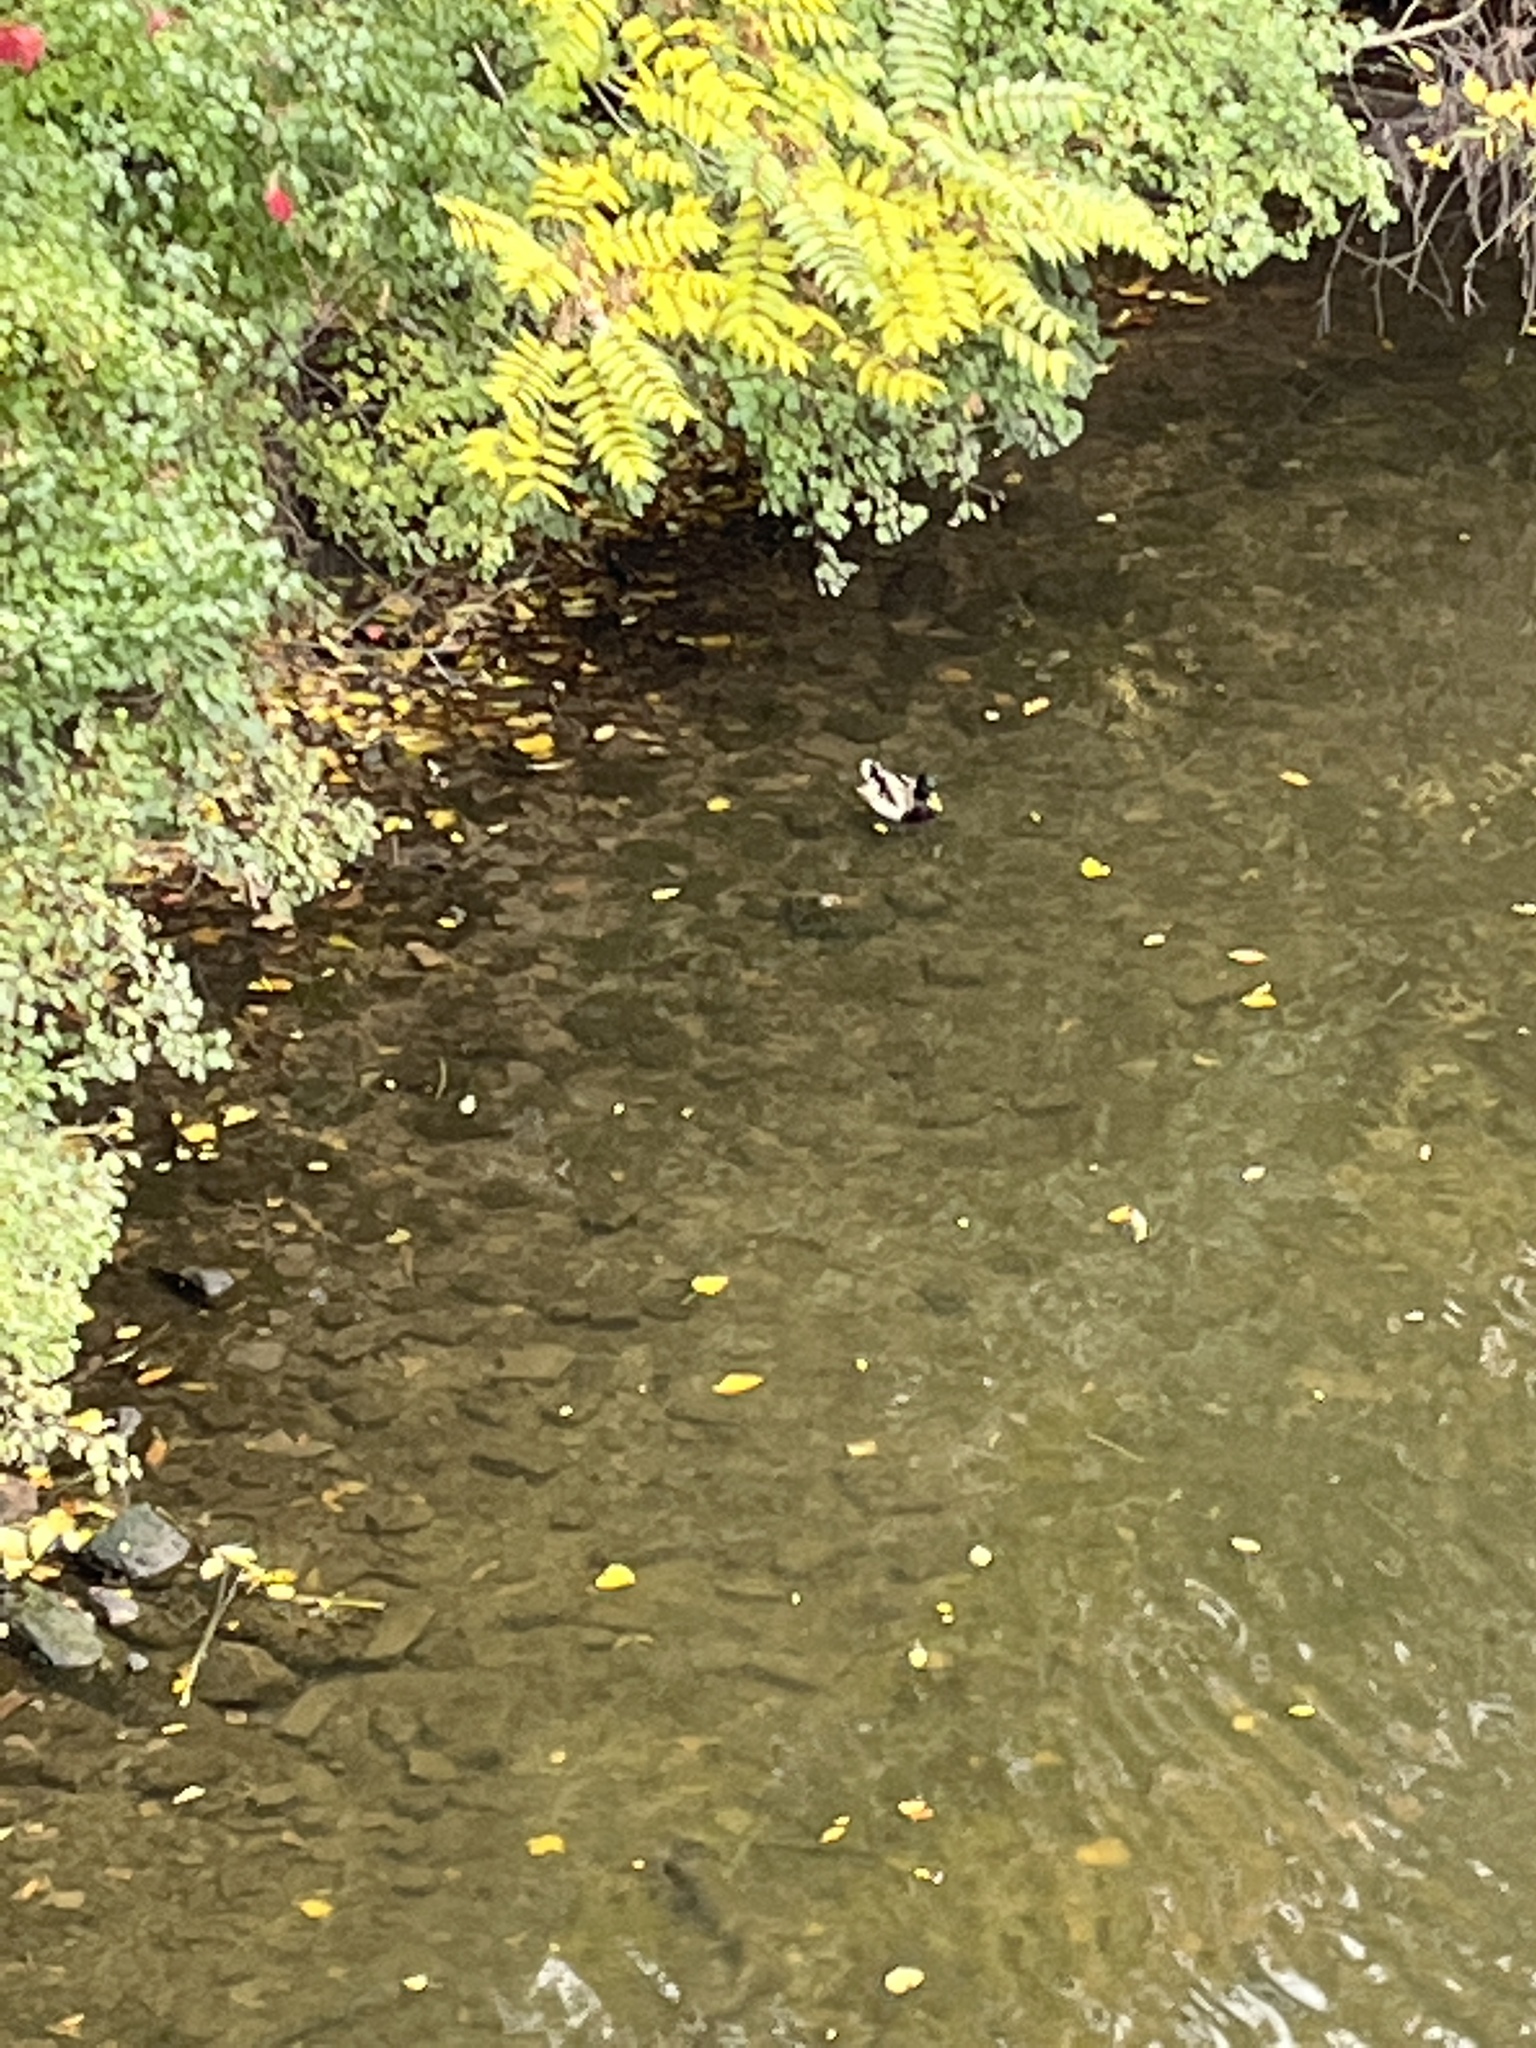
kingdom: Animalia
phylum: Chordata
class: Aves
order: Anseriformes
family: Anatidae
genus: Anas
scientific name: Anas platyrhynchos
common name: Mallard
